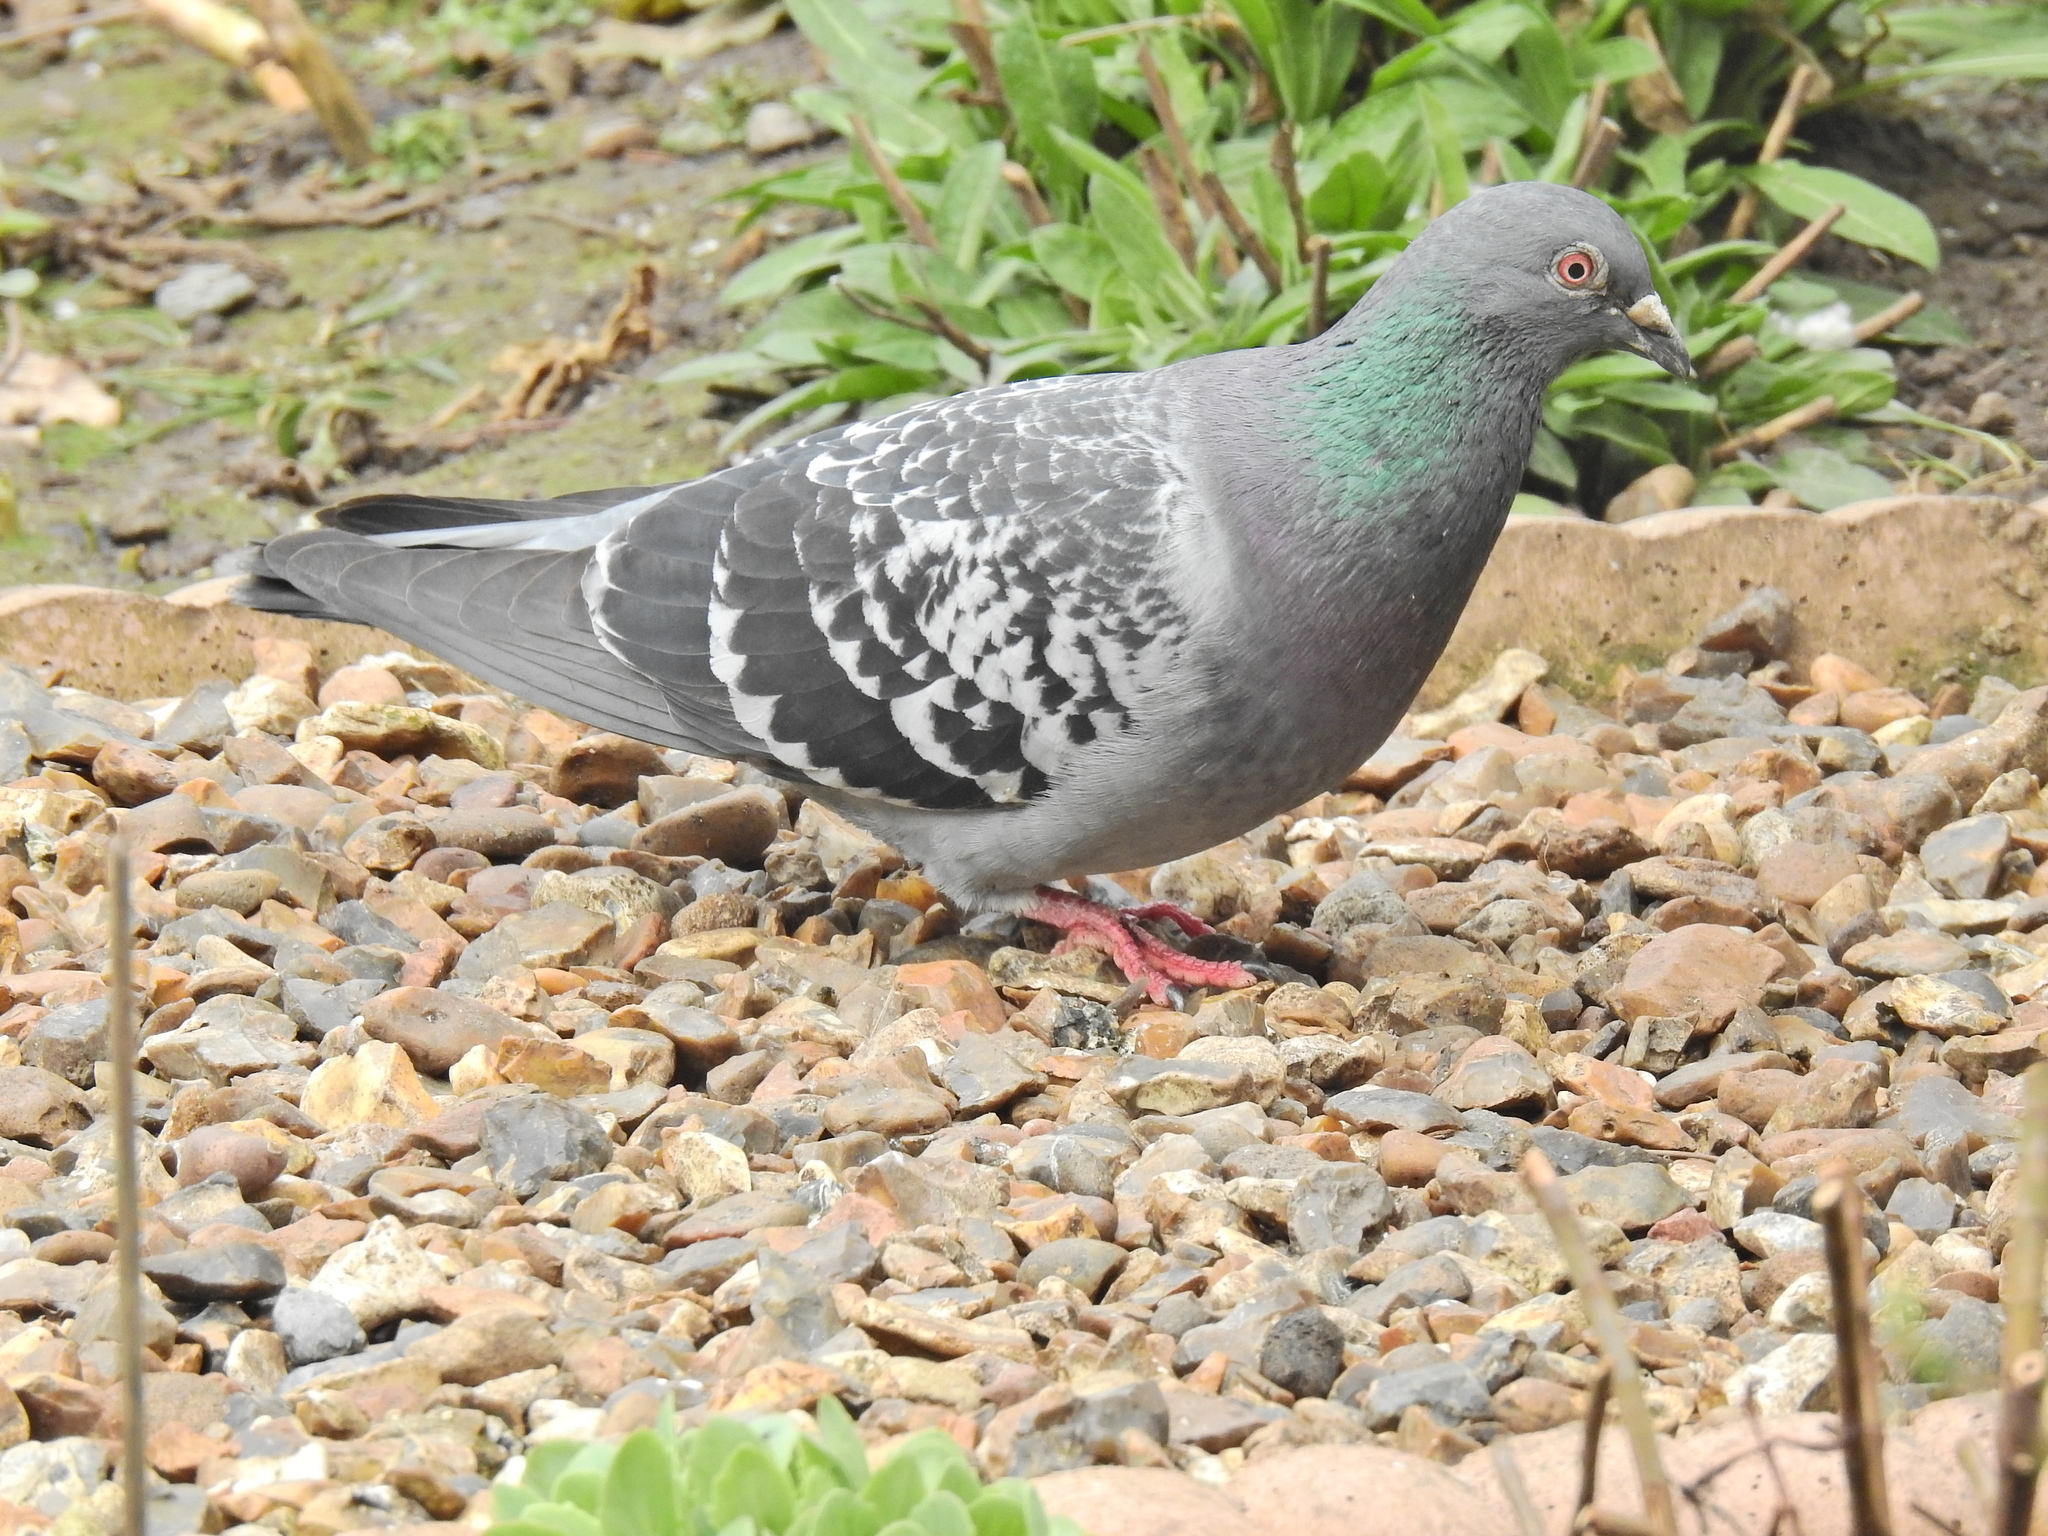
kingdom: Animalia
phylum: Chordata
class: Aves
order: Columbiformes
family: Columbidae
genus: Columba
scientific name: Columba livia
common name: Rock pigeon
